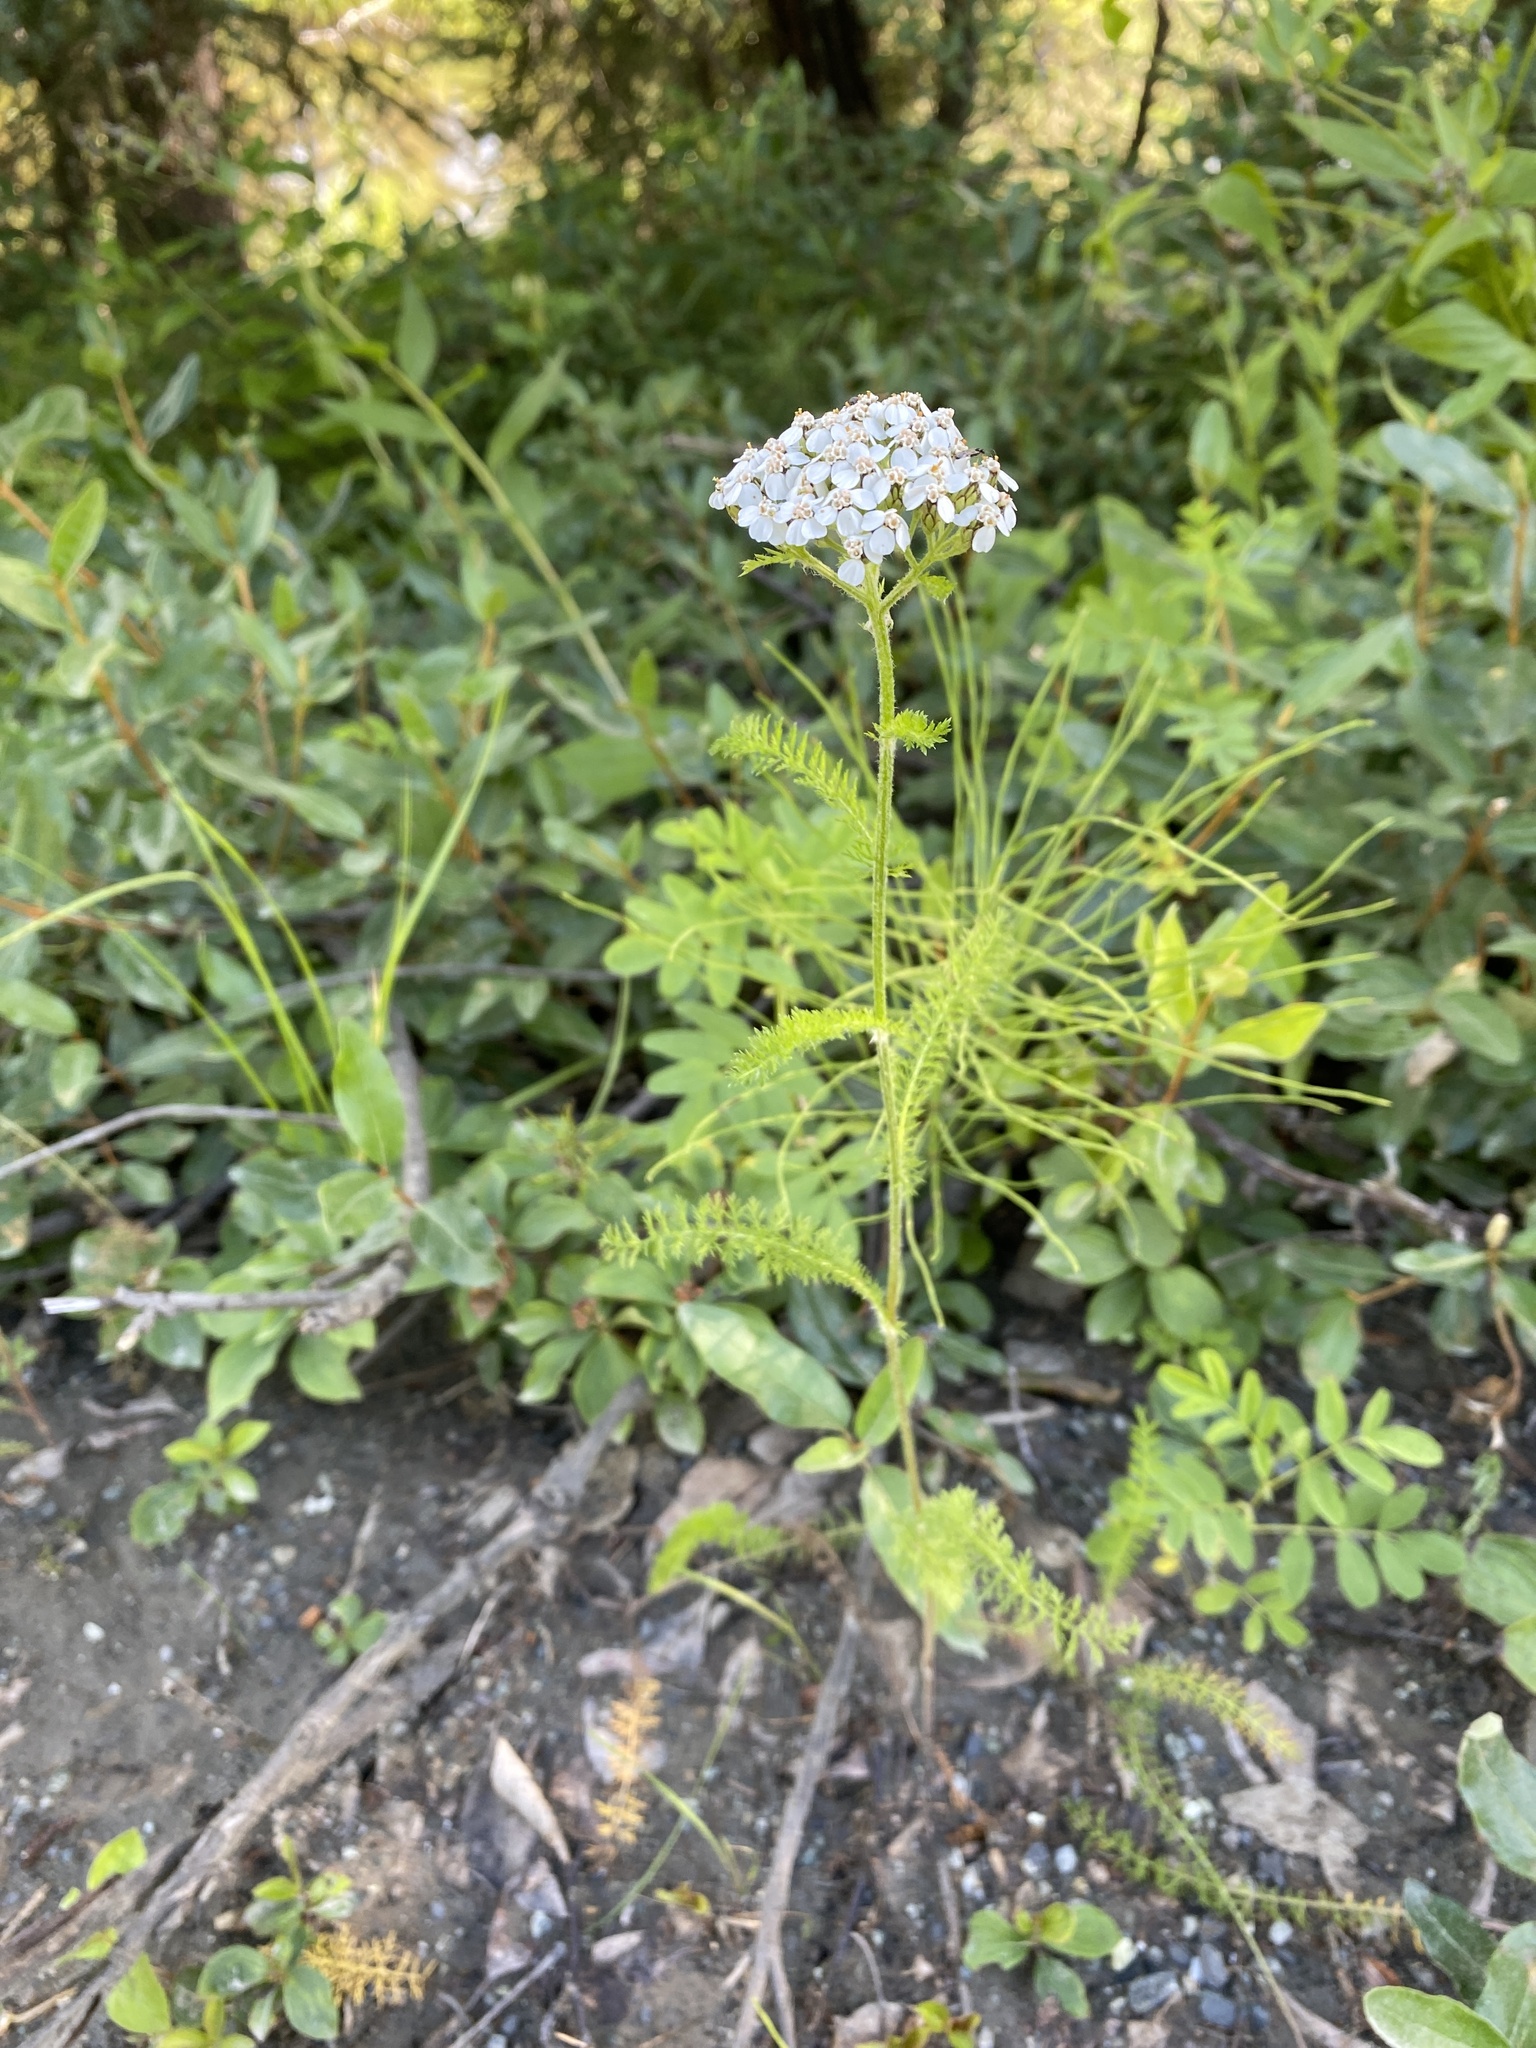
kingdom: Plantae
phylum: Tracheophyta
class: Magnoliopsida
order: Asterales
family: Asteraceae
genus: Achillea
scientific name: Achillea millefolium
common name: Yarrow
